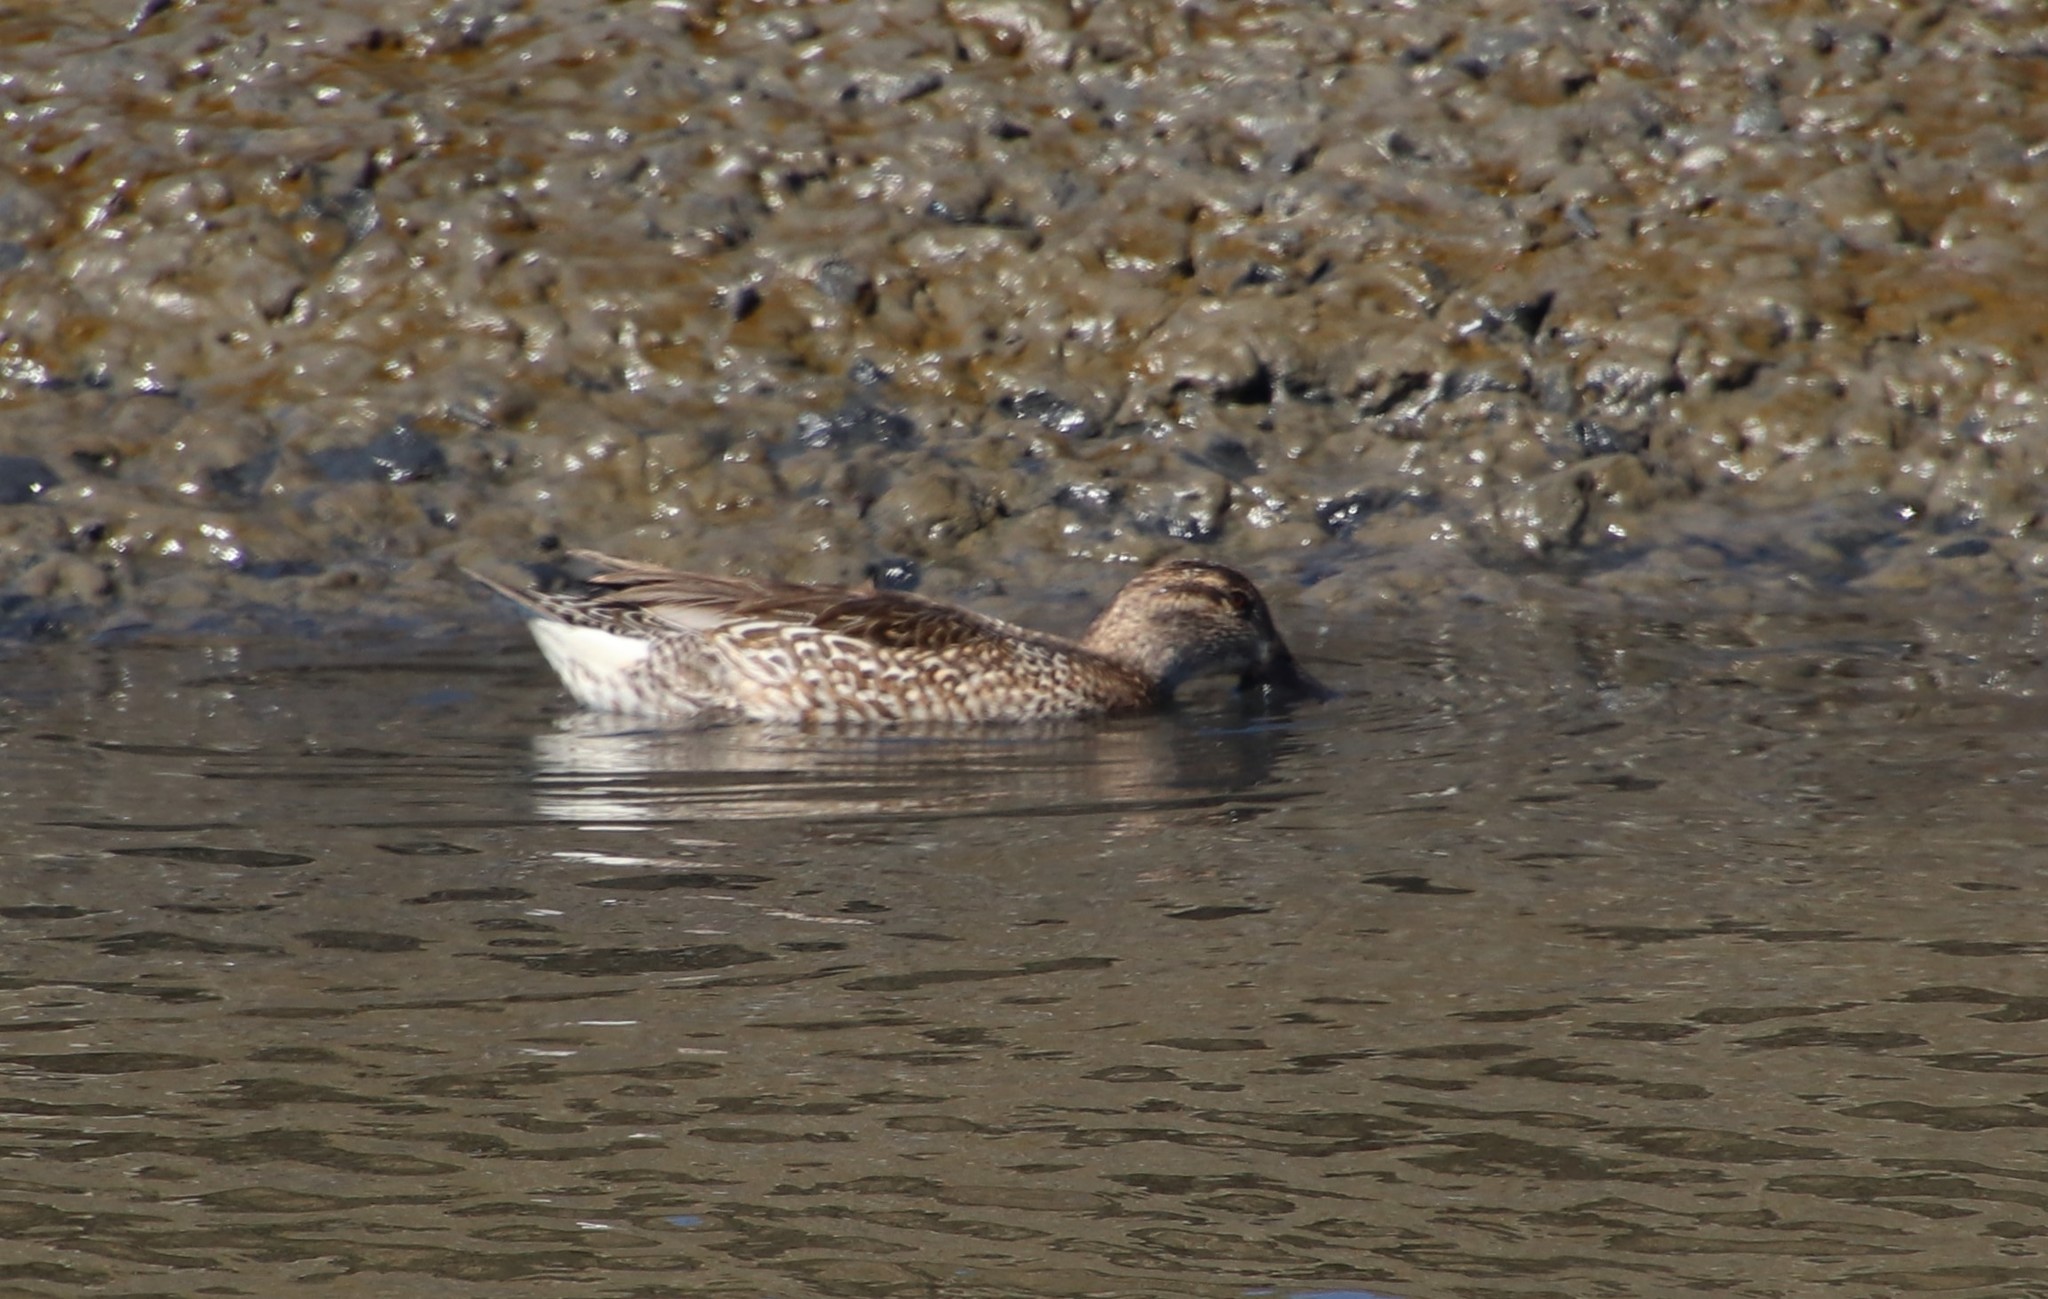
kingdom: Animalia
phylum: Chordata
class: Aves
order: Anseriformes
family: Anatidae
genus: Anas
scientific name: Anas crecca
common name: Eurasian teal
